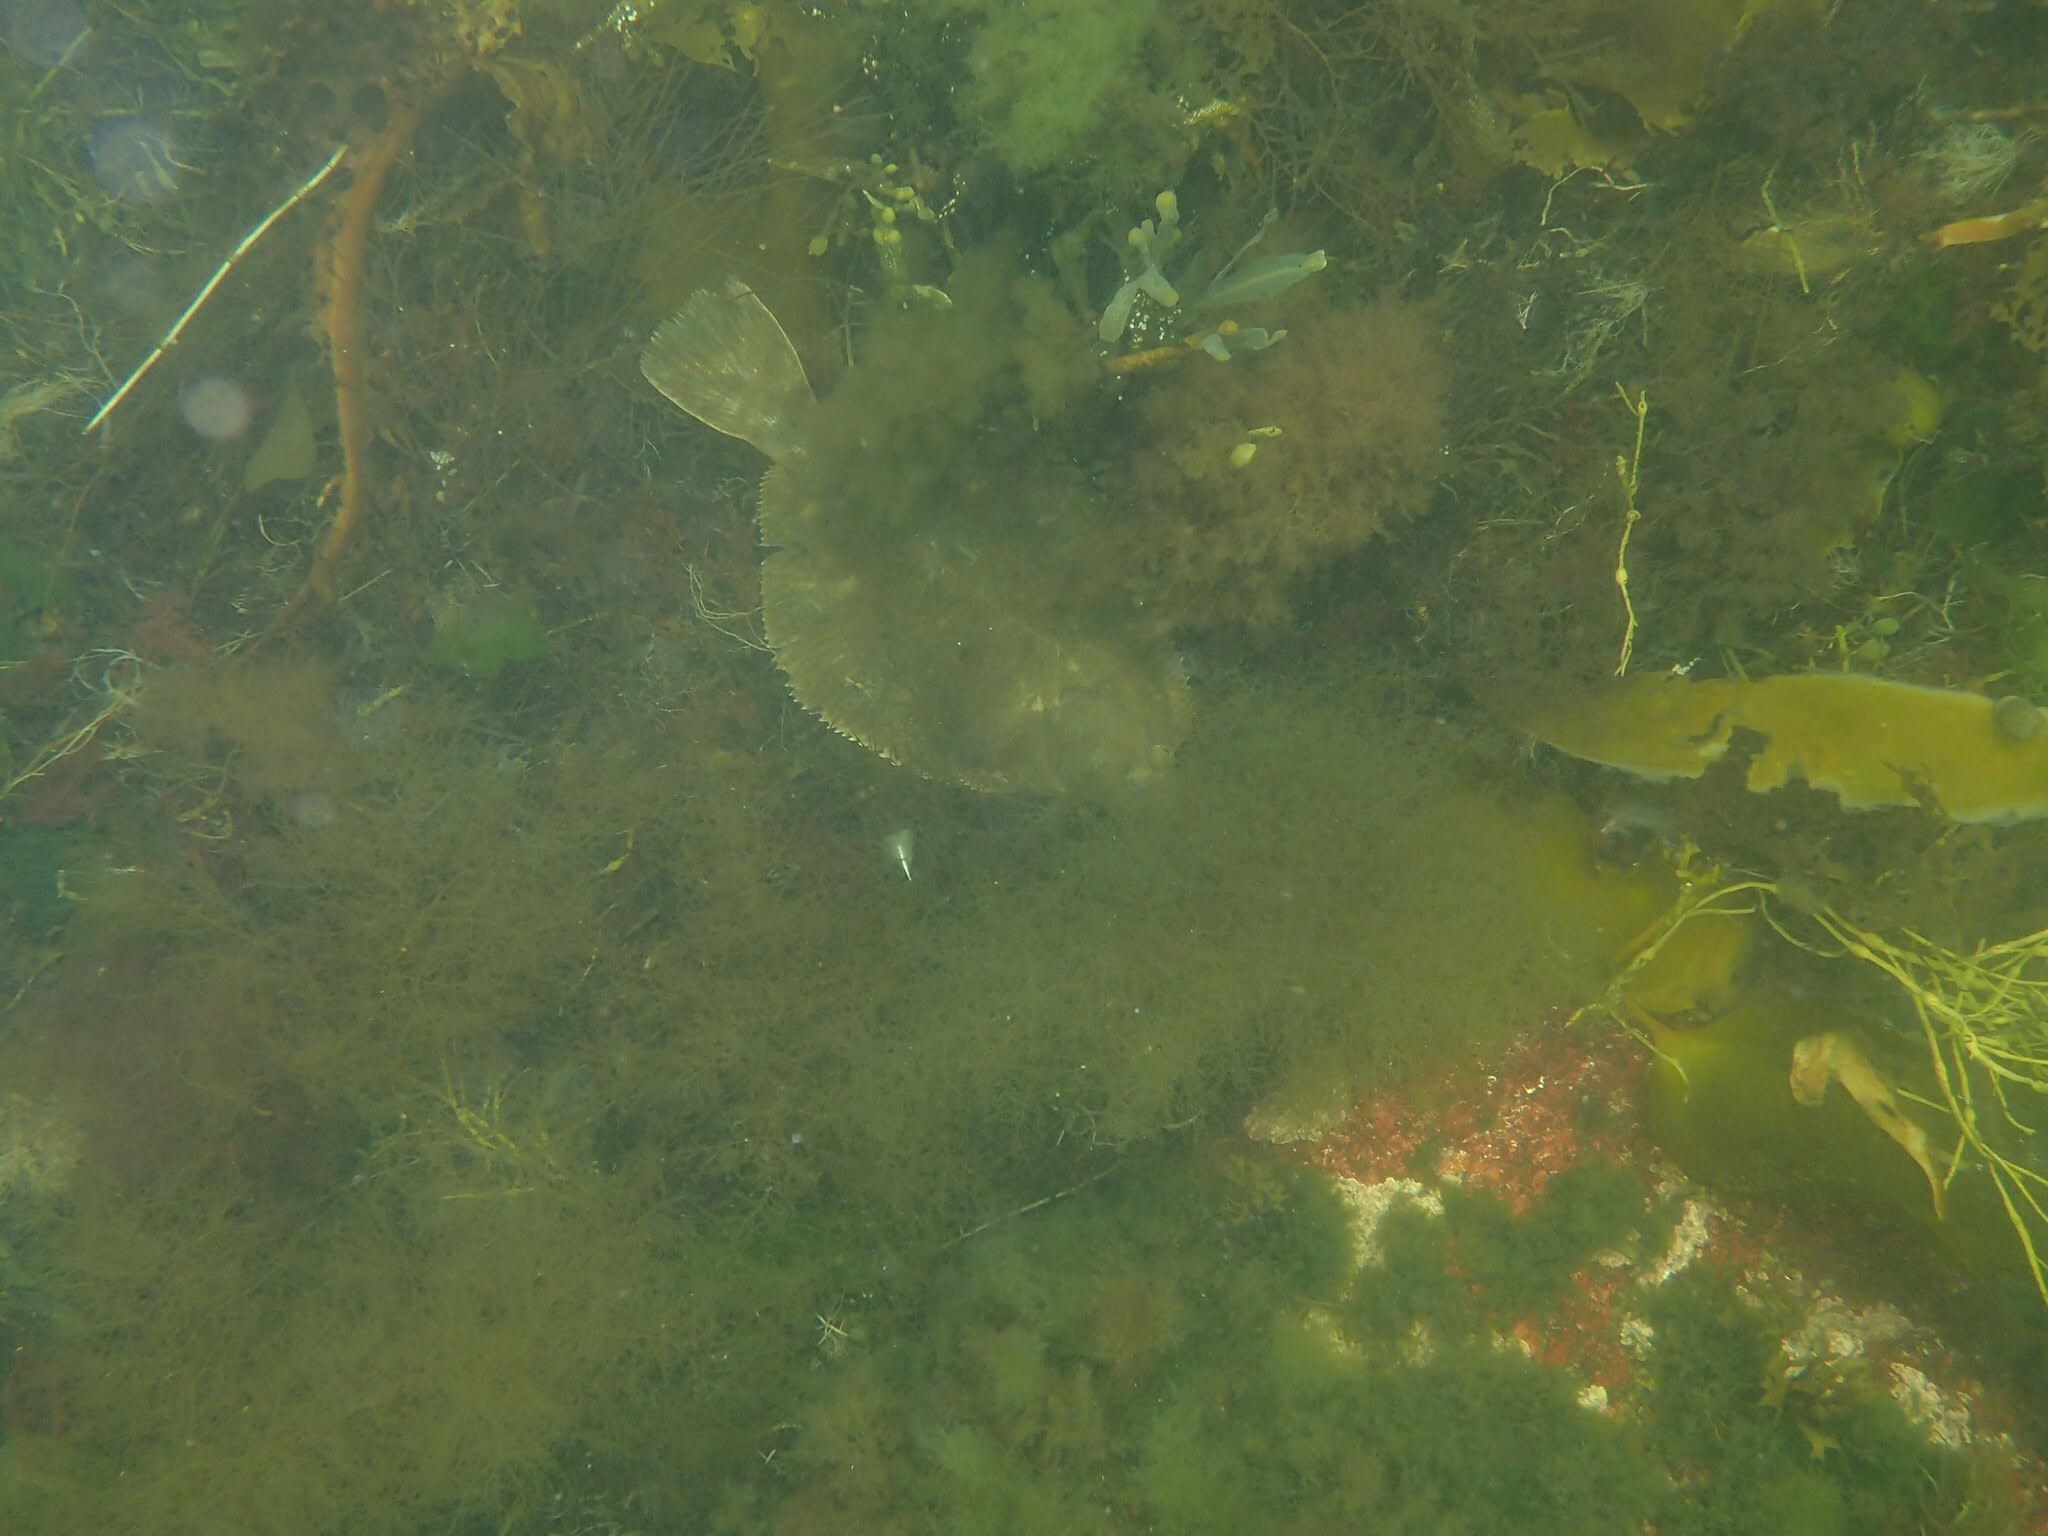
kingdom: Animalia
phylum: Chordata
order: Pleuronectiformes
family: Pleuronectidae
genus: Pseudopleuronectes
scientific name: Pseudopleuronectes americanus
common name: Black backs
